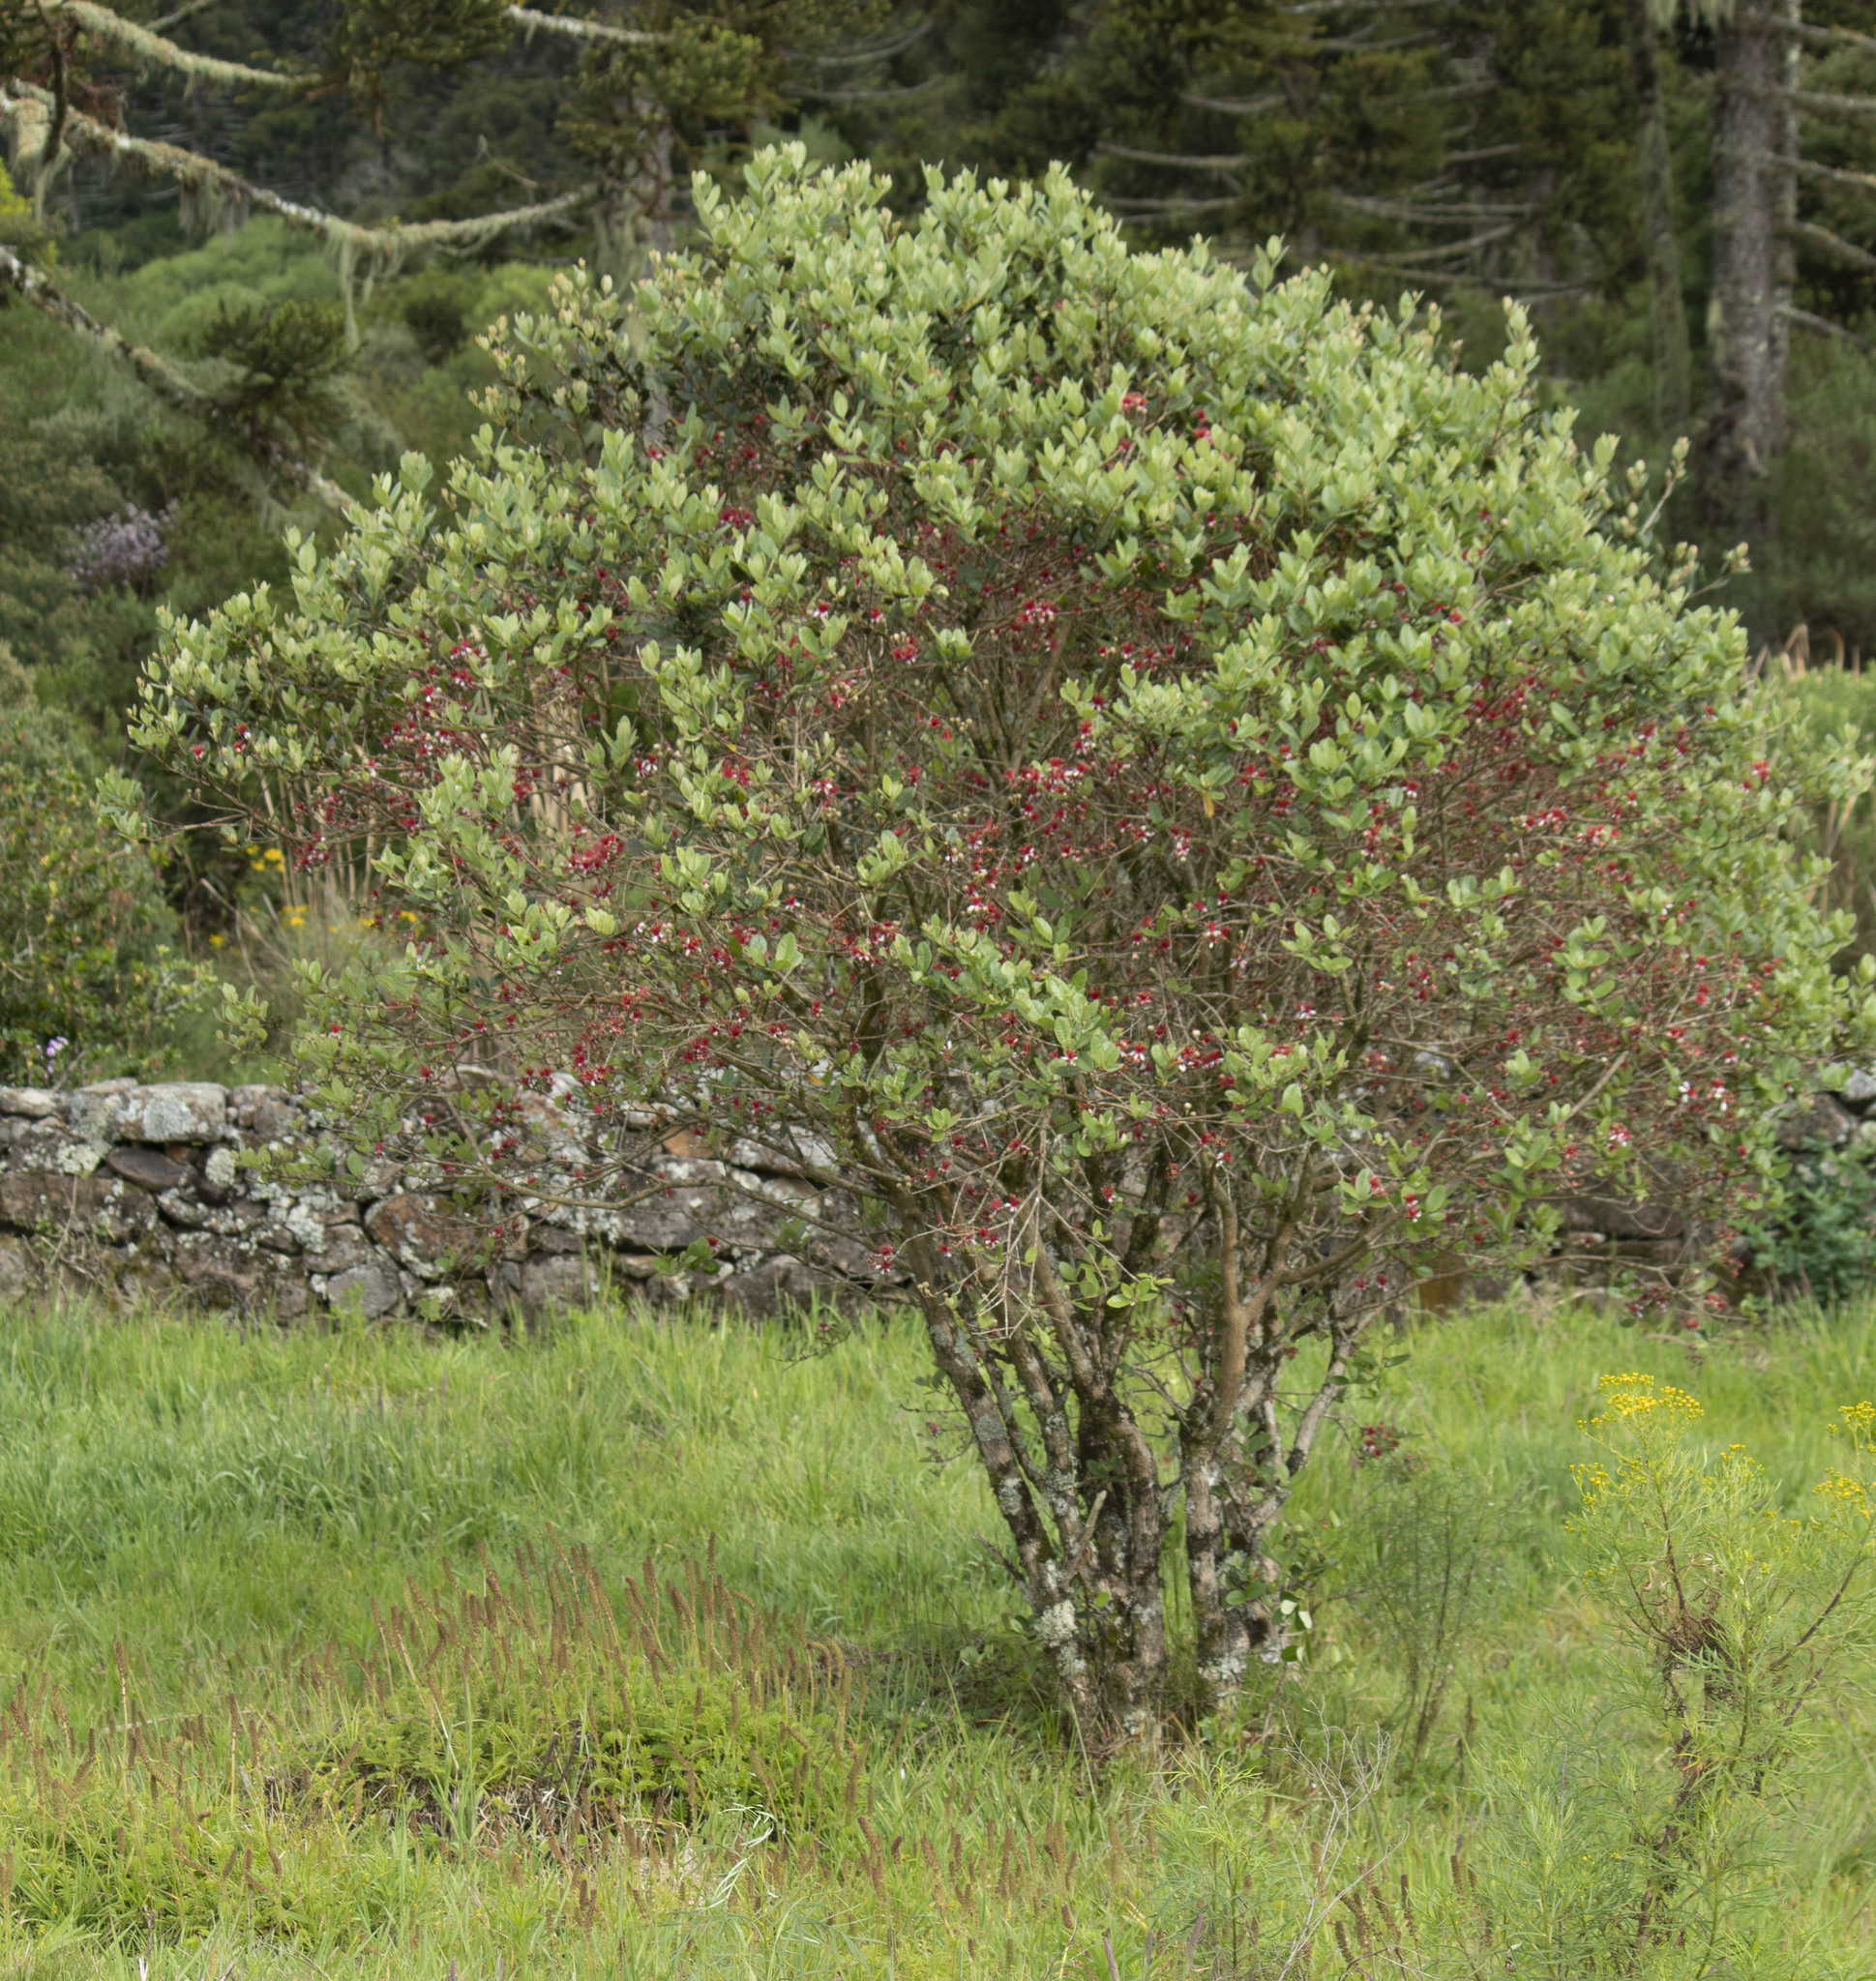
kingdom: Plantae
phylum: Tracheophyta
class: Magnoliopsida
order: Myrtales
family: Myrtaceae
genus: Feijoa
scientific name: Feijoa sellowiana
